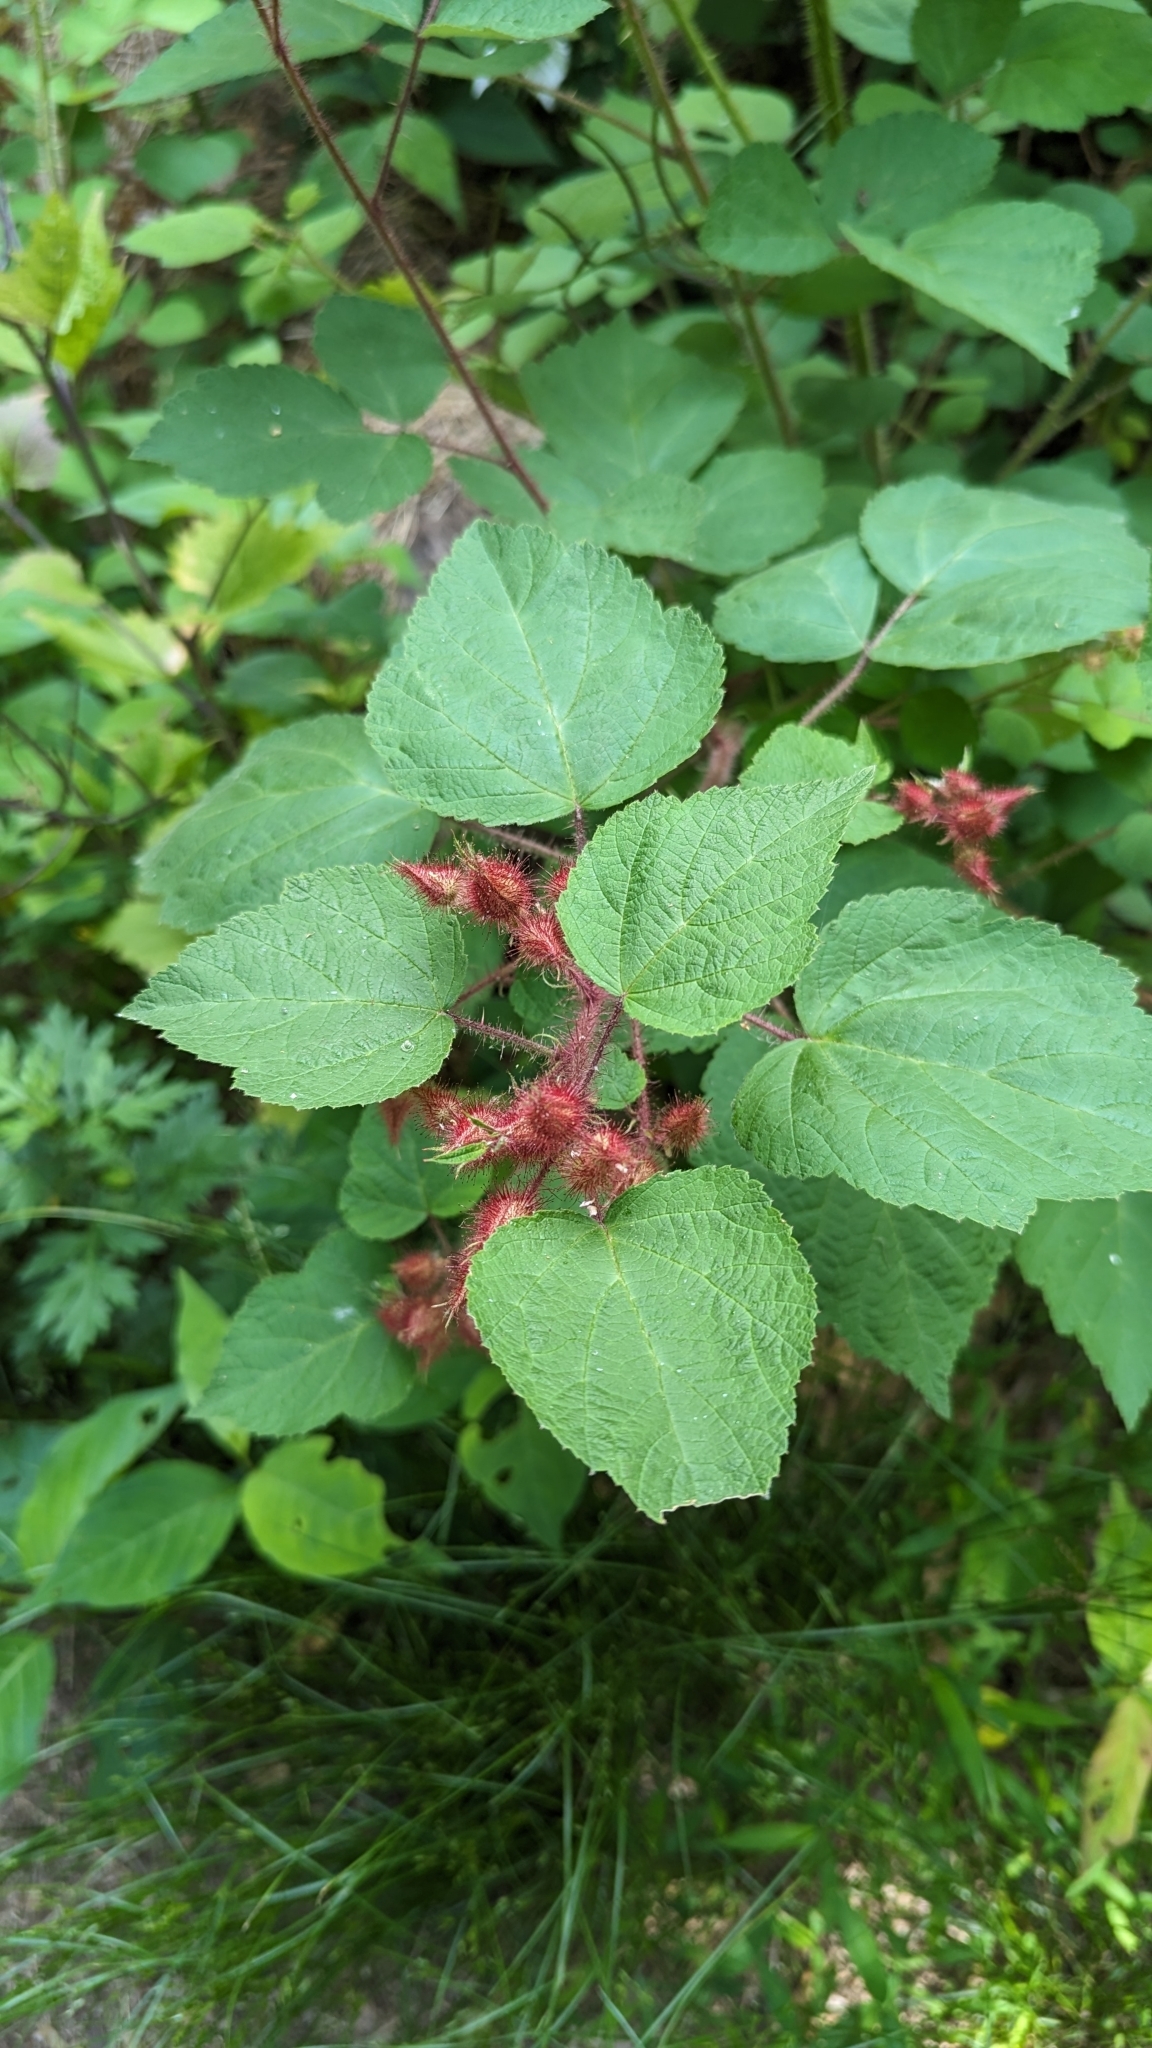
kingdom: Plantae
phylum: Tracheophyta
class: Magnoliopsida
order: Rosales
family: Rosaceae
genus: Rubus
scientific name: Rubus phoenicolasius
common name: Japanese wineberry
